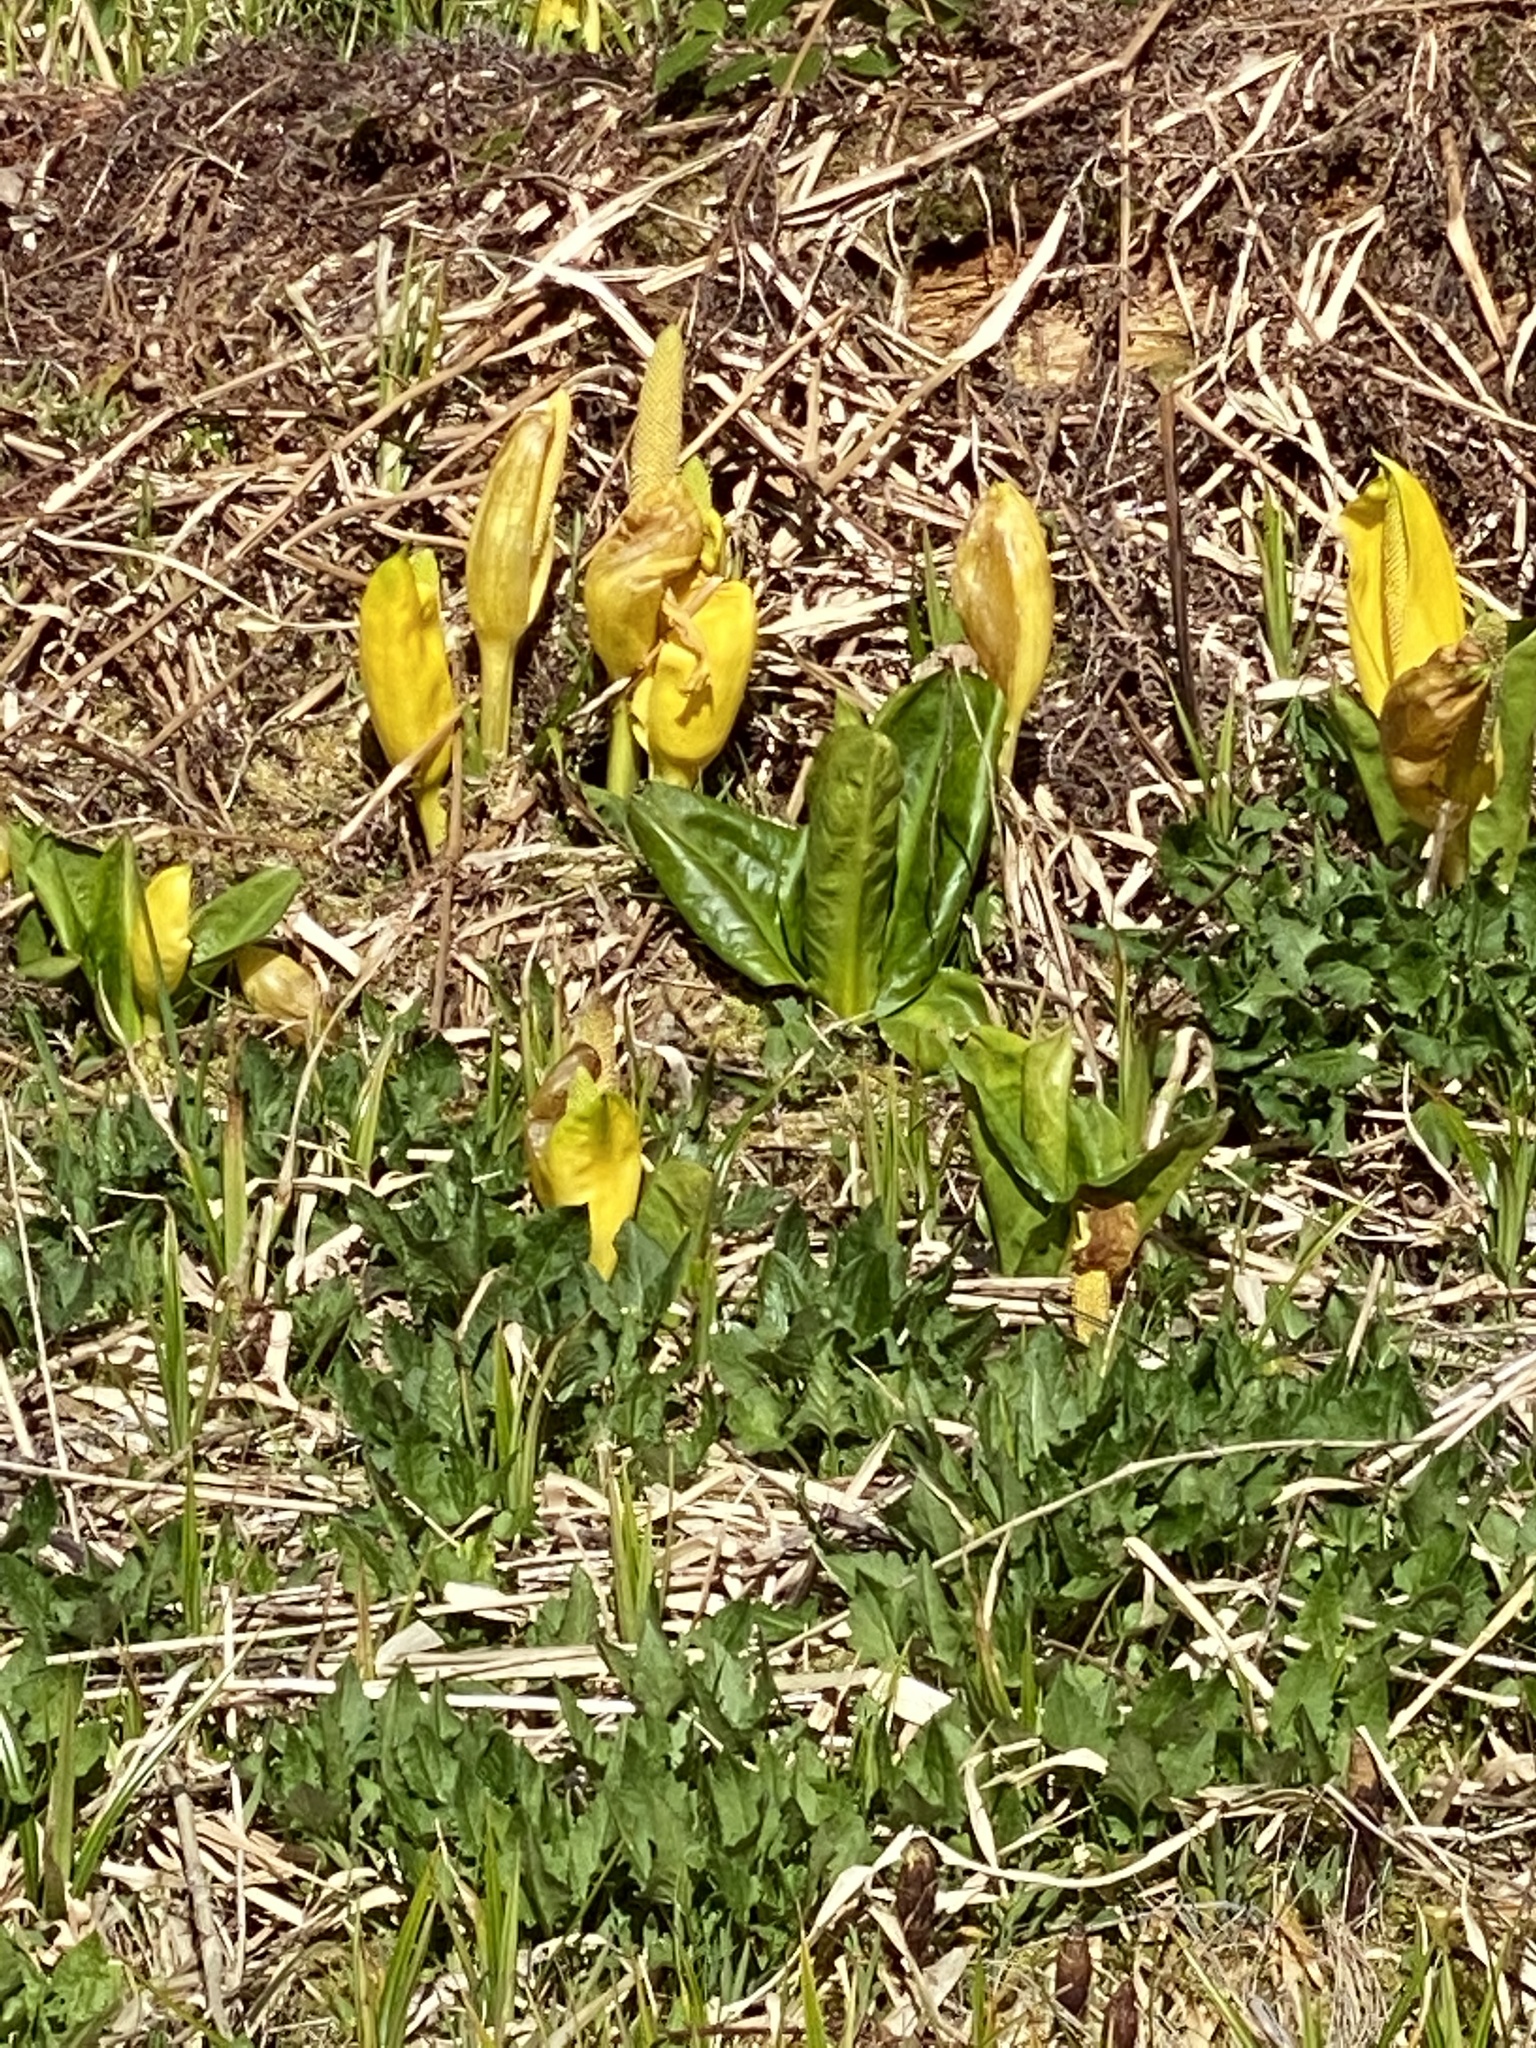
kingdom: Plantae
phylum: Tracheophyta
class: Liliopsida
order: Alismatales
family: Araceae
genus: Lysichiton
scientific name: Lysichiton americanus
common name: American skunk cabbage
